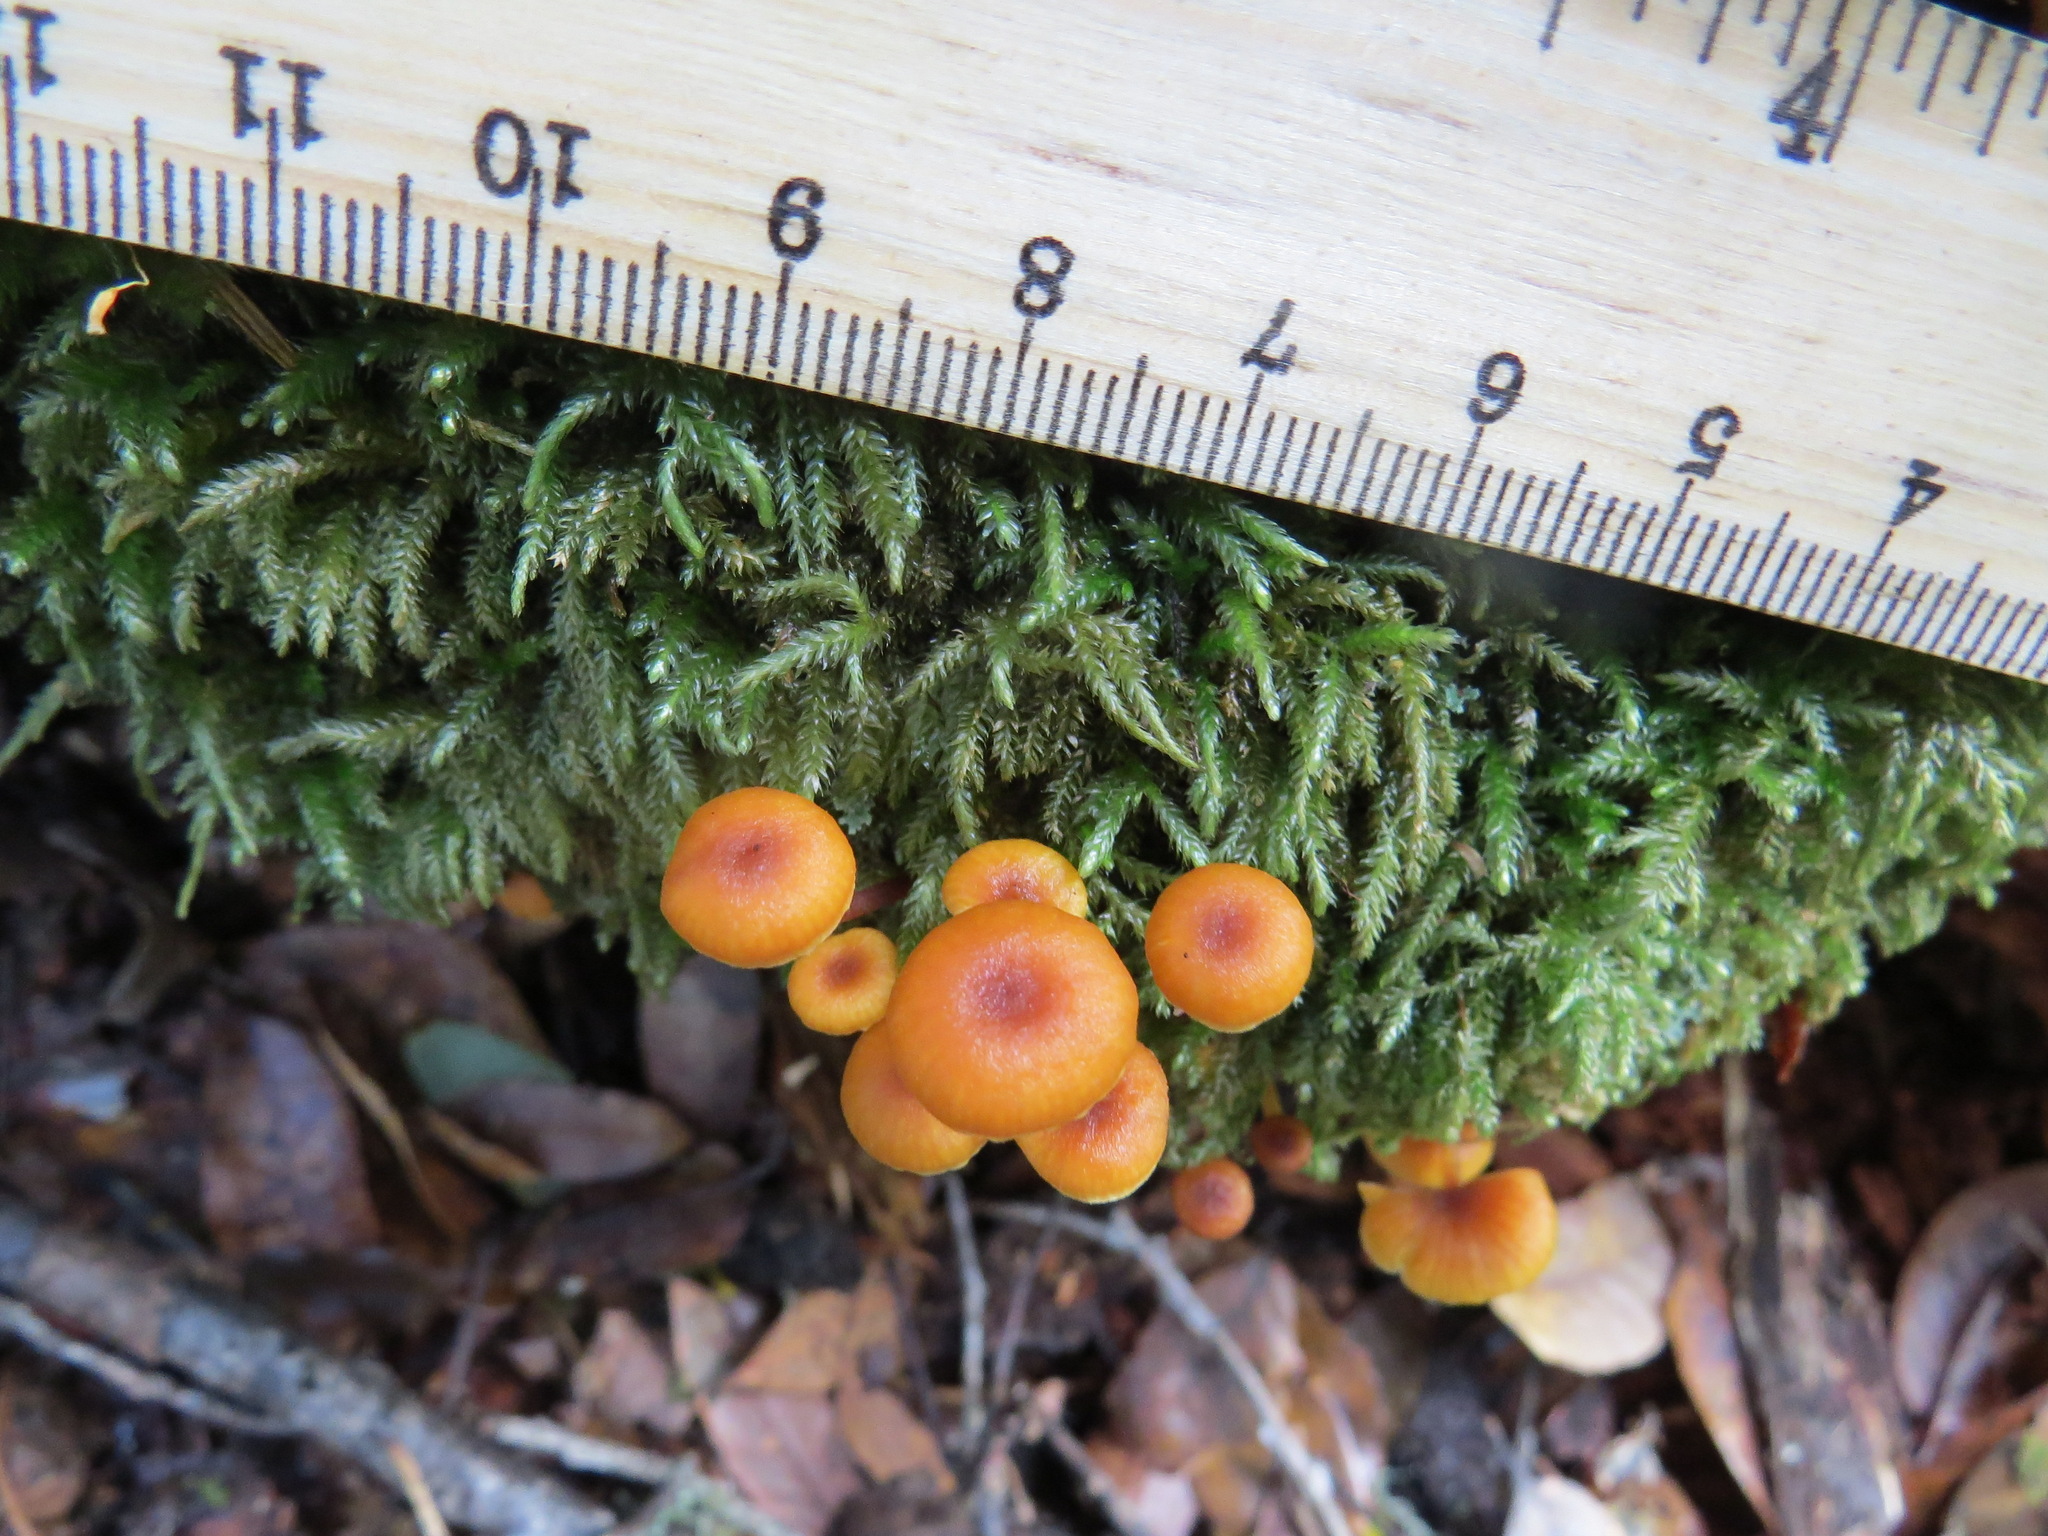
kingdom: Fungi
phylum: Basidiomycota
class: Agaricomycetes
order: Agaricales
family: Mycenaceae
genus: Xeromphalina
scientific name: Xeromphalina campanella
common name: Pinewood gingertail
